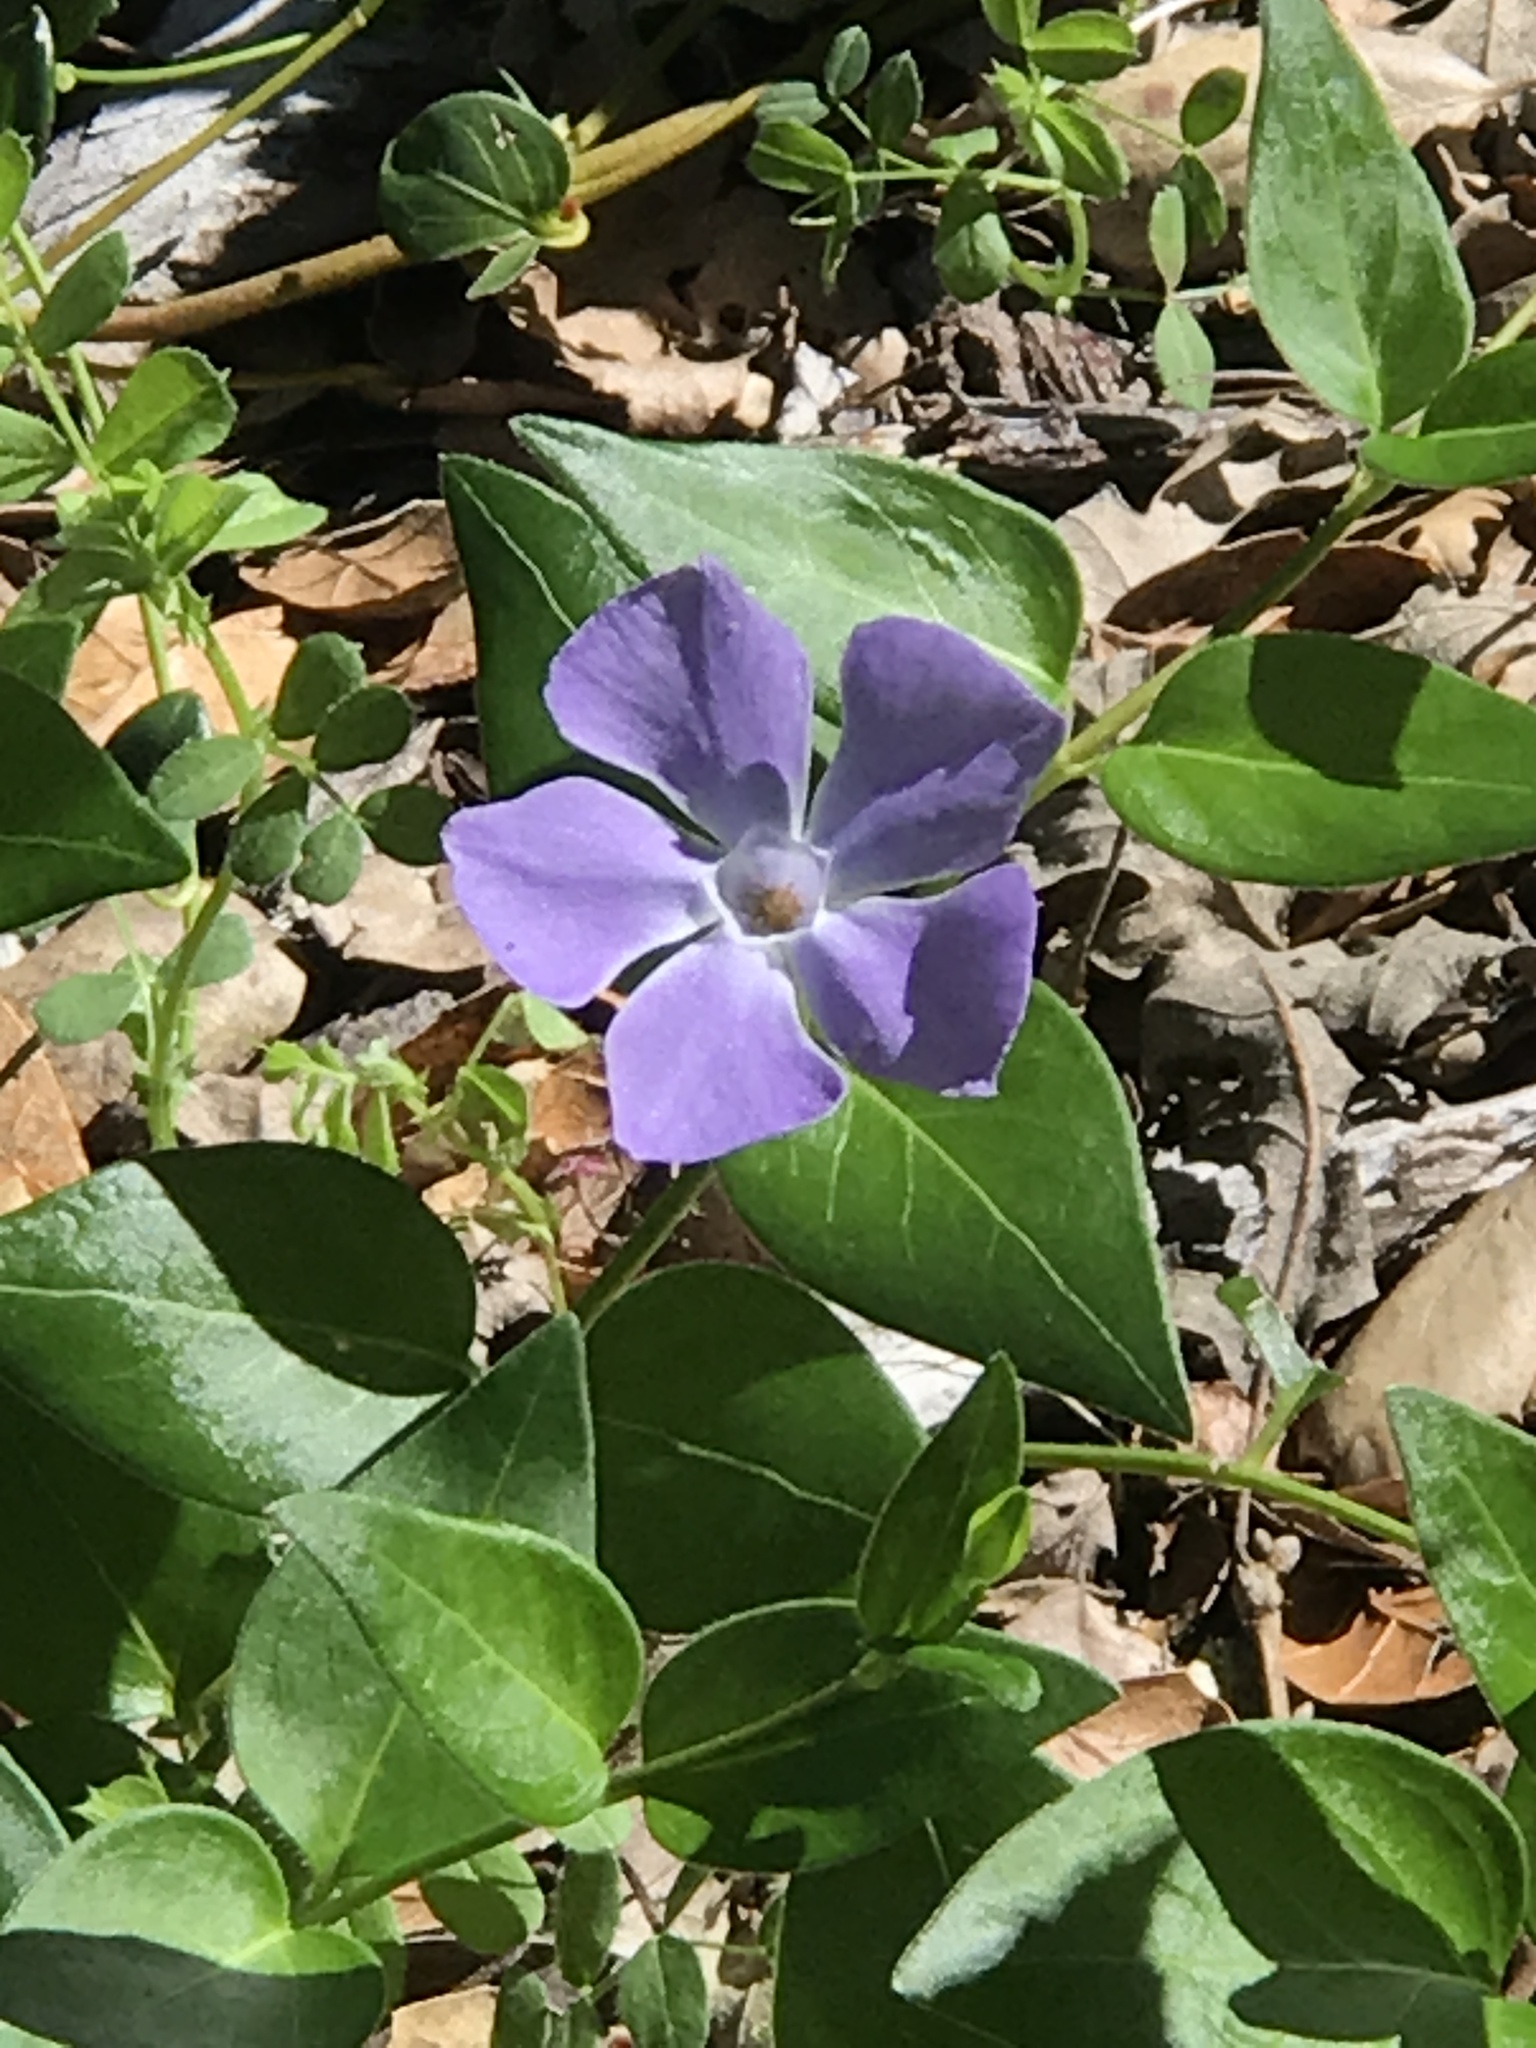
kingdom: Plantae
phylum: Tracheophyta
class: Magnoliopsida
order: Gentianales
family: Apocynaceae
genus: Vinca
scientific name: Vinca major
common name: Greater periwinkle
